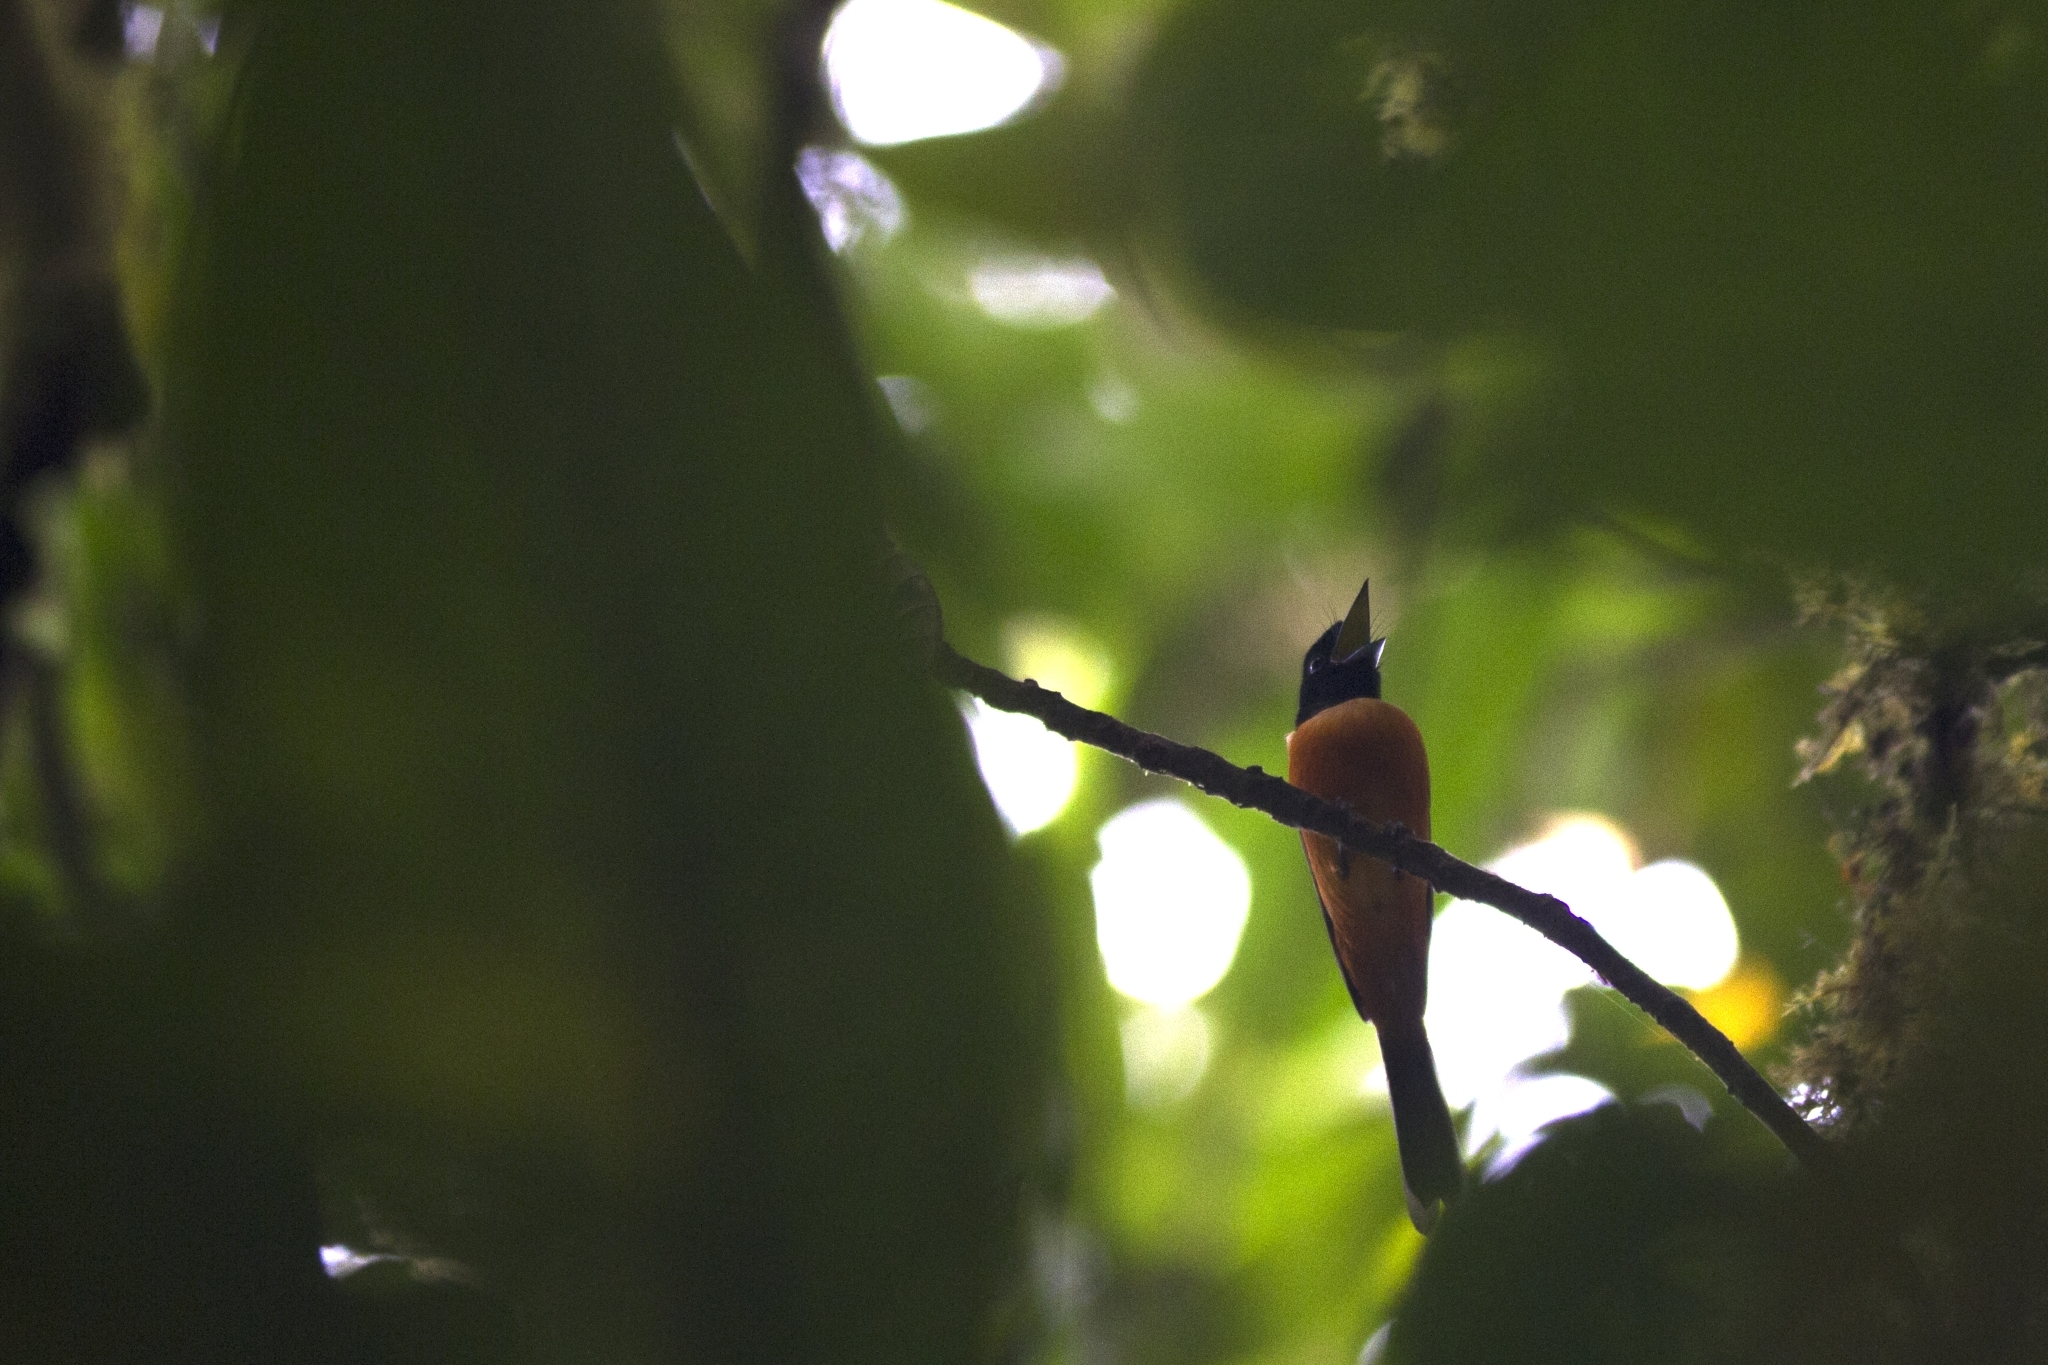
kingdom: Animalia
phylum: Chordata
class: Aves
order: Passeriformes
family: Monarchidae
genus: Terpsiphone
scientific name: Terpsiphone rufiventer
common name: Red-bellied paradise flycatcher
